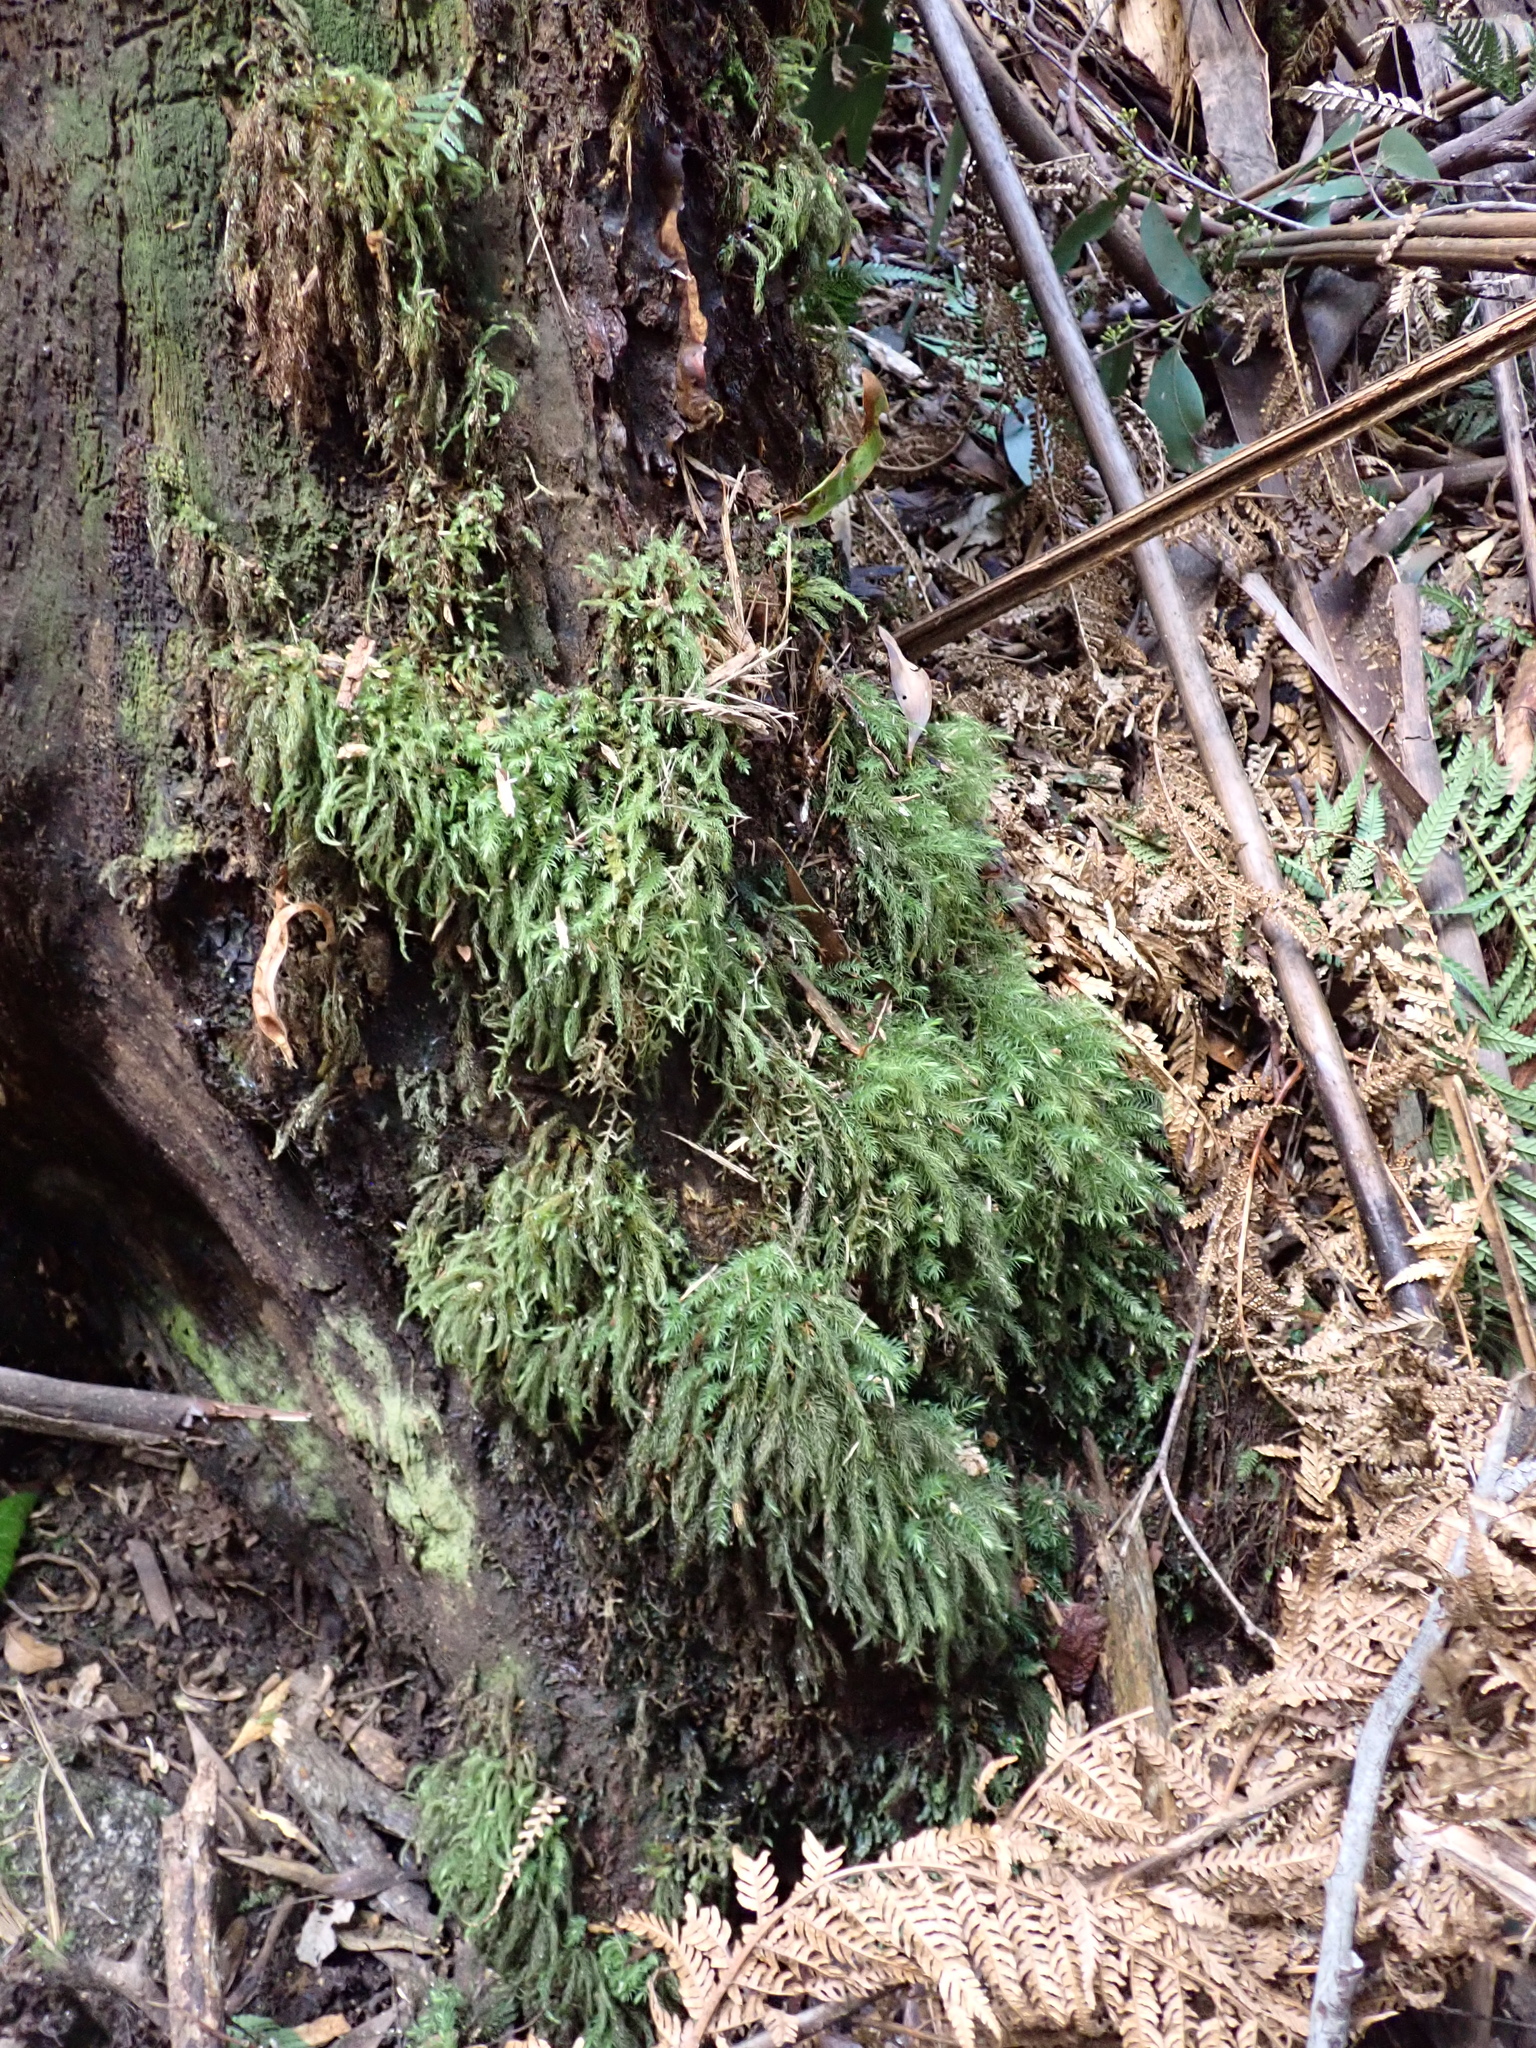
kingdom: Plantae
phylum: Bryophyta
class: Bryopsida
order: Aulacomniales
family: Aulacomniaceae
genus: Hymenodontopsis
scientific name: Hymenodontopsis mnioides
